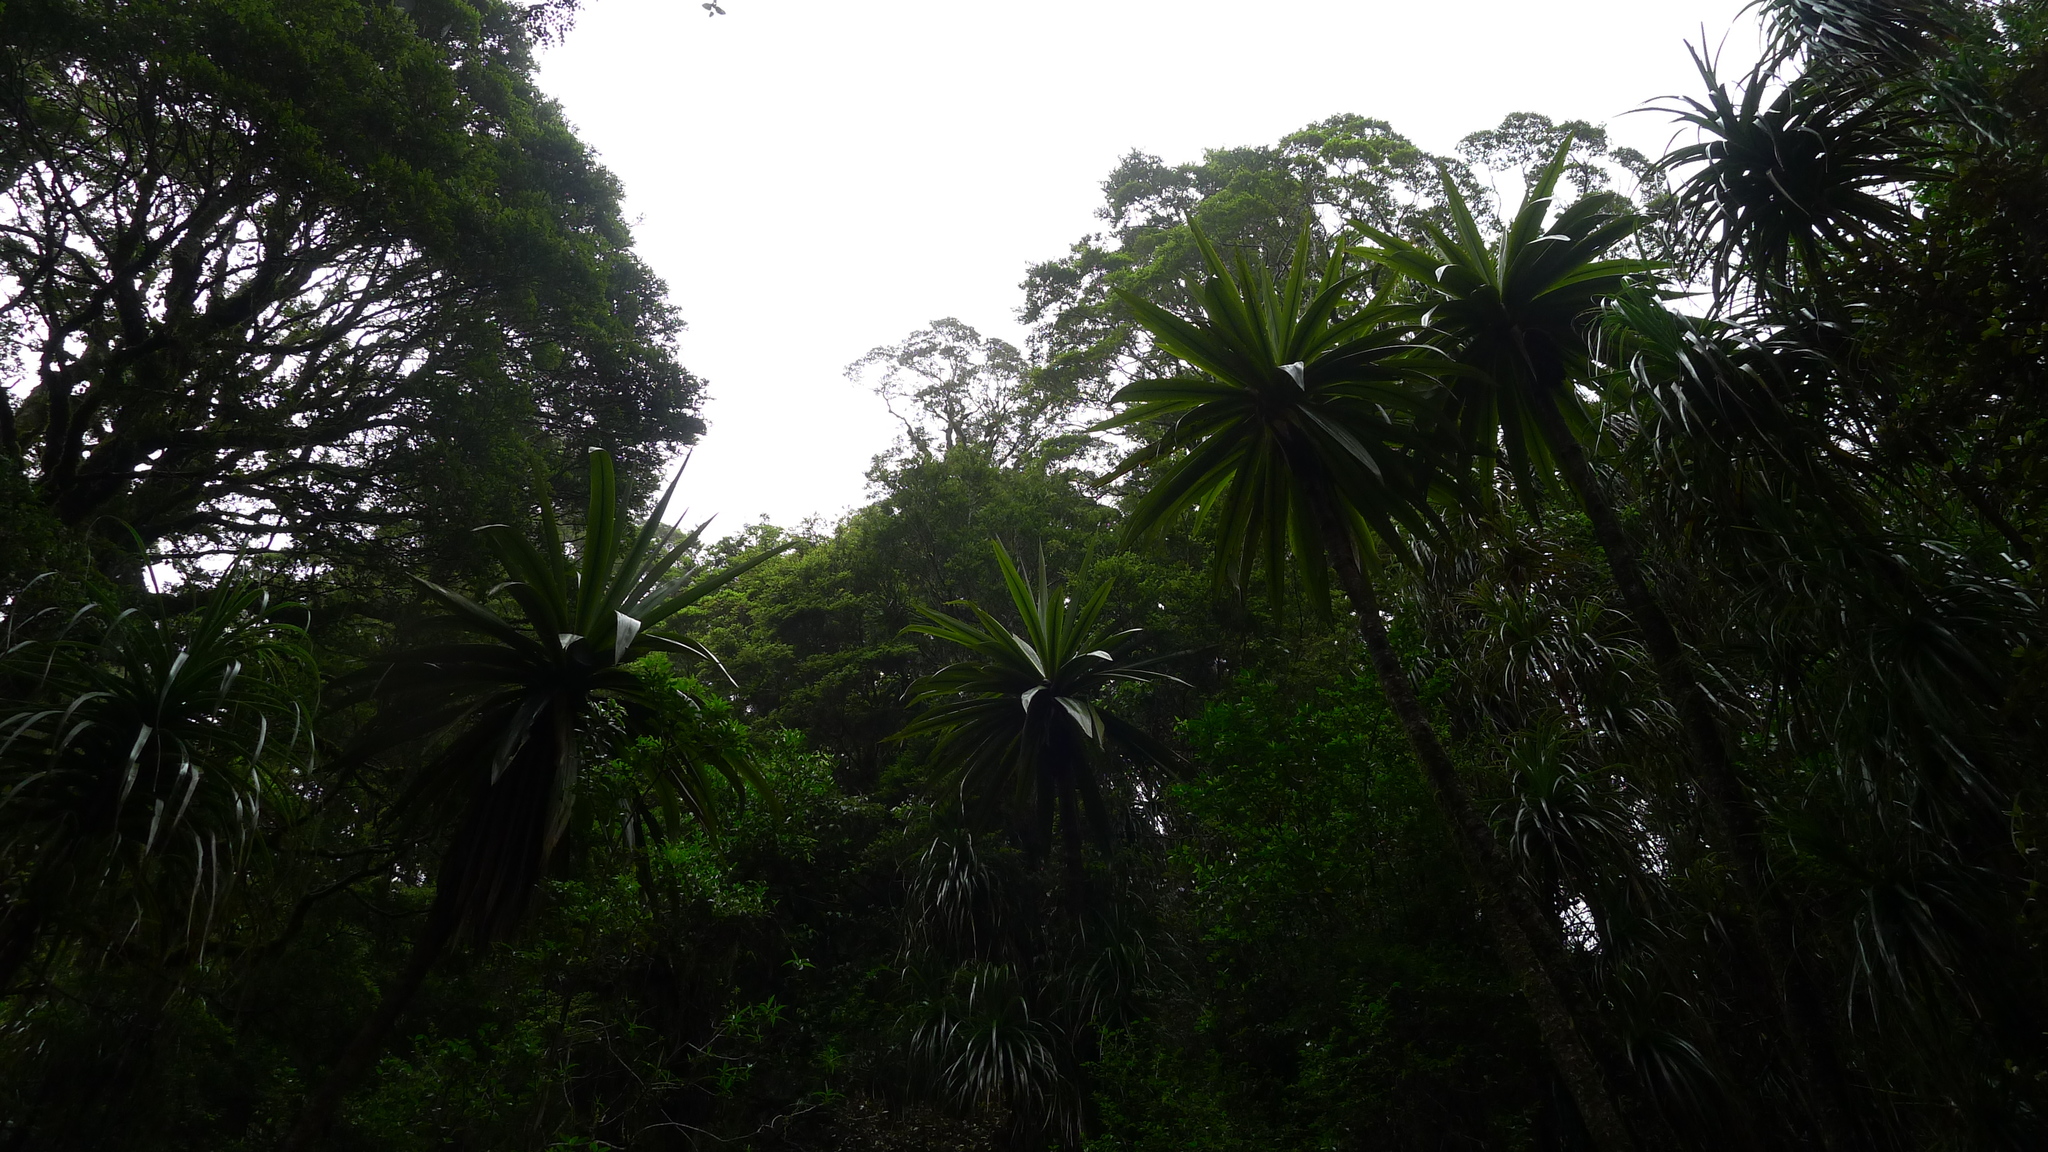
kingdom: Plantae
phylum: Tracheophyta
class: Liliopsida
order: Asparagales
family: Asparagaceae
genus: Cordyline
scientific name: Cordyline indivisa
